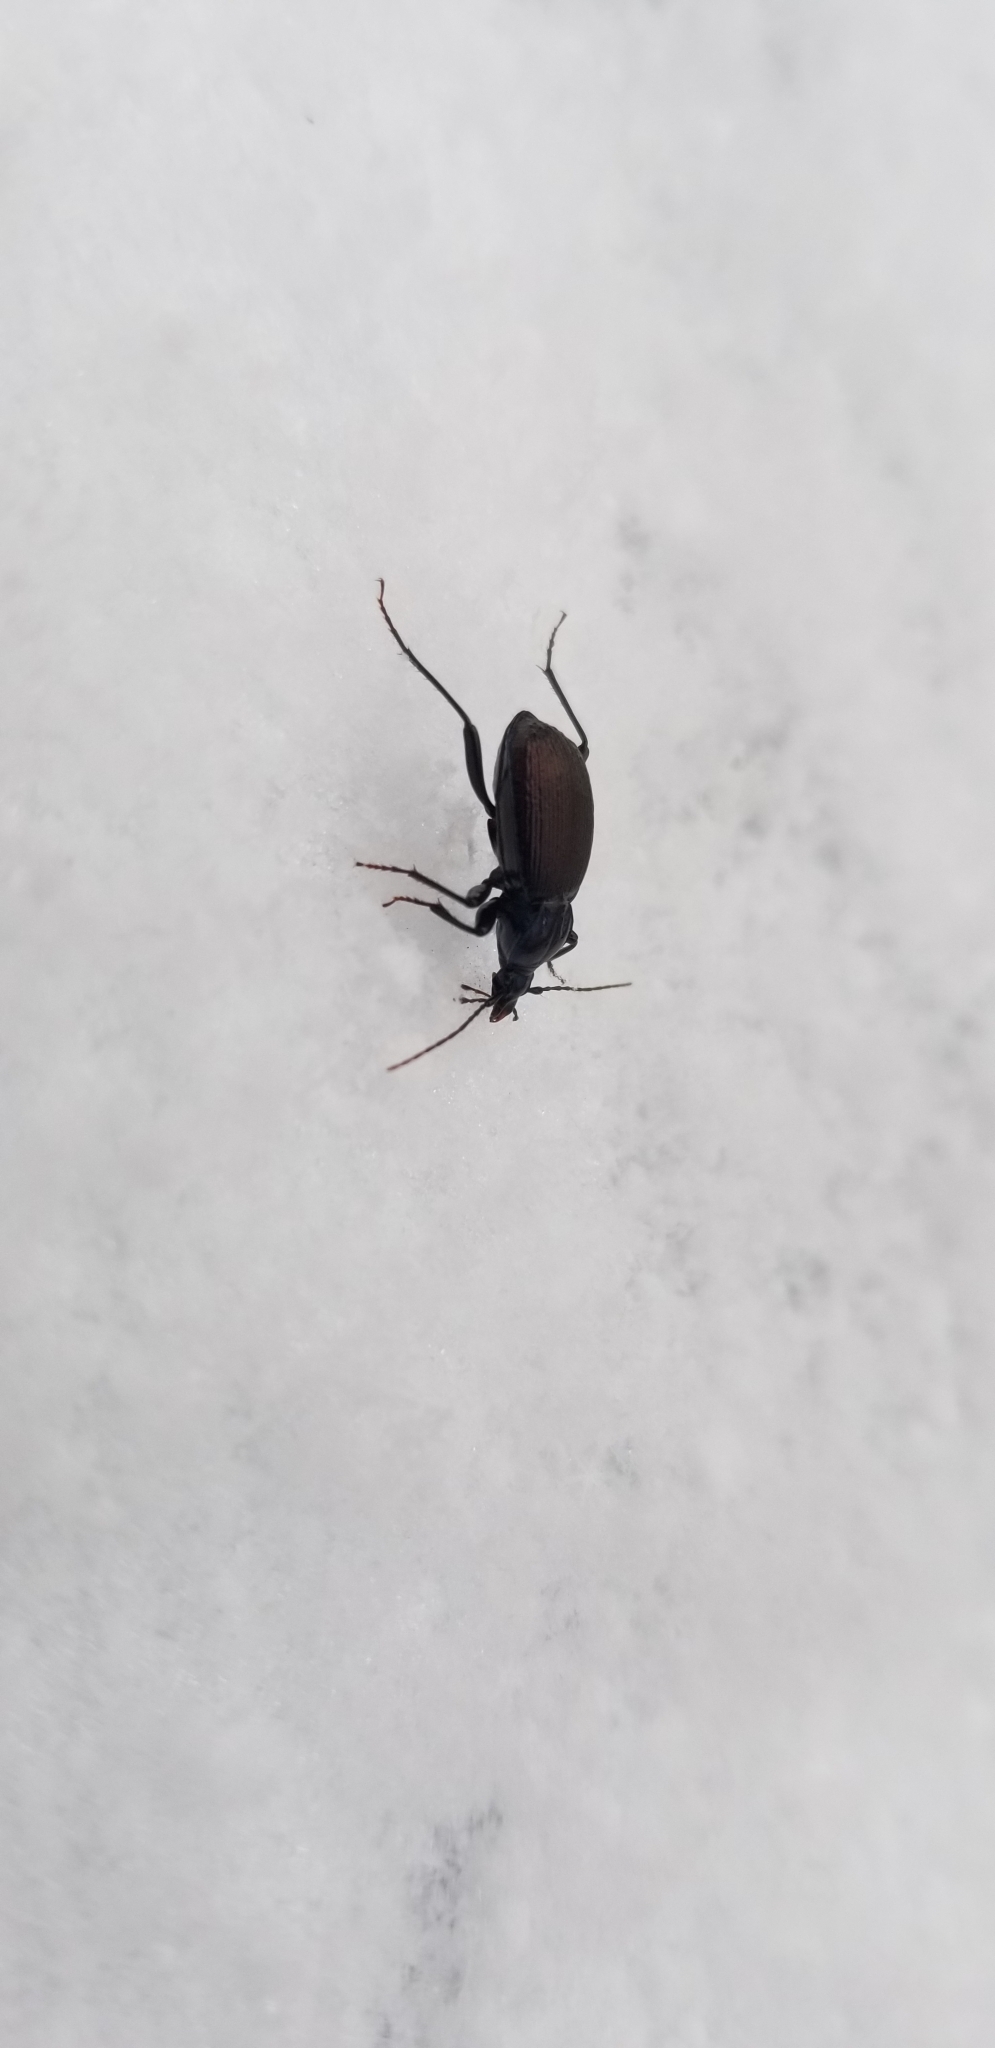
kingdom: Animalia
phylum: Arthropoda
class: Insecta
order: Coleoptera
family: Carabidae
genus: Sphaeroderus
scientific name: Sphaeroderus canadensis
